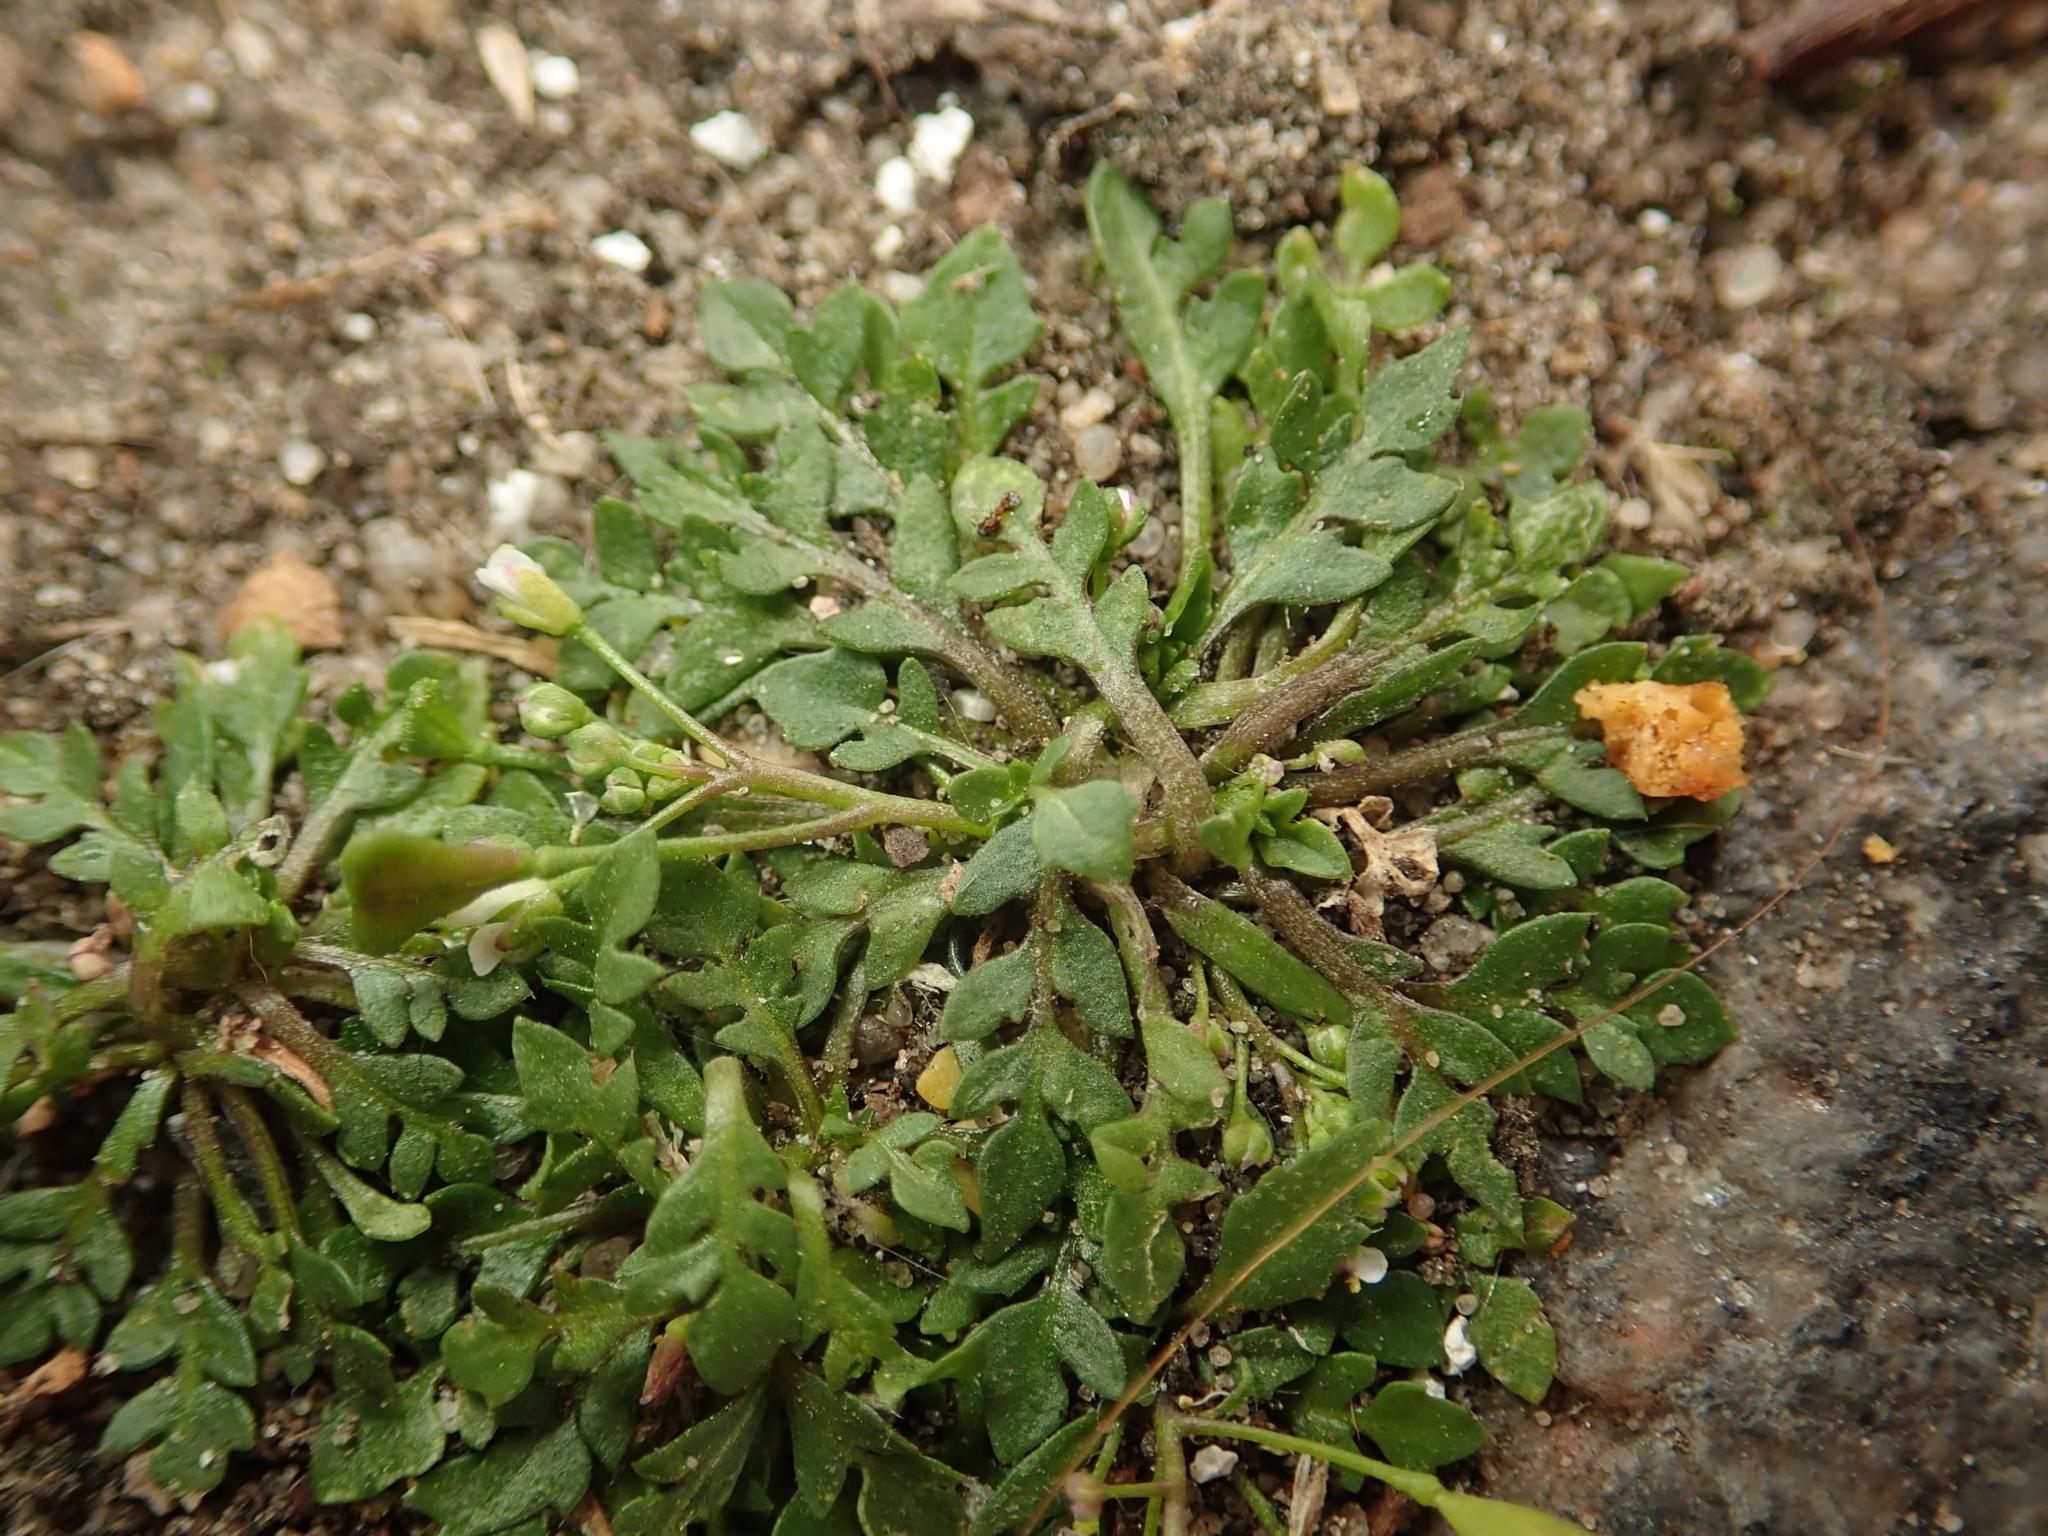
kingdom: Plantae
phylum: Tracheophyta
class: Magnoliopsida
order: Brassicales
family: Brassicaceae
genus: Capsella
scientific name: Capsella bursa-pastoris
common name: Shepherd's purse
